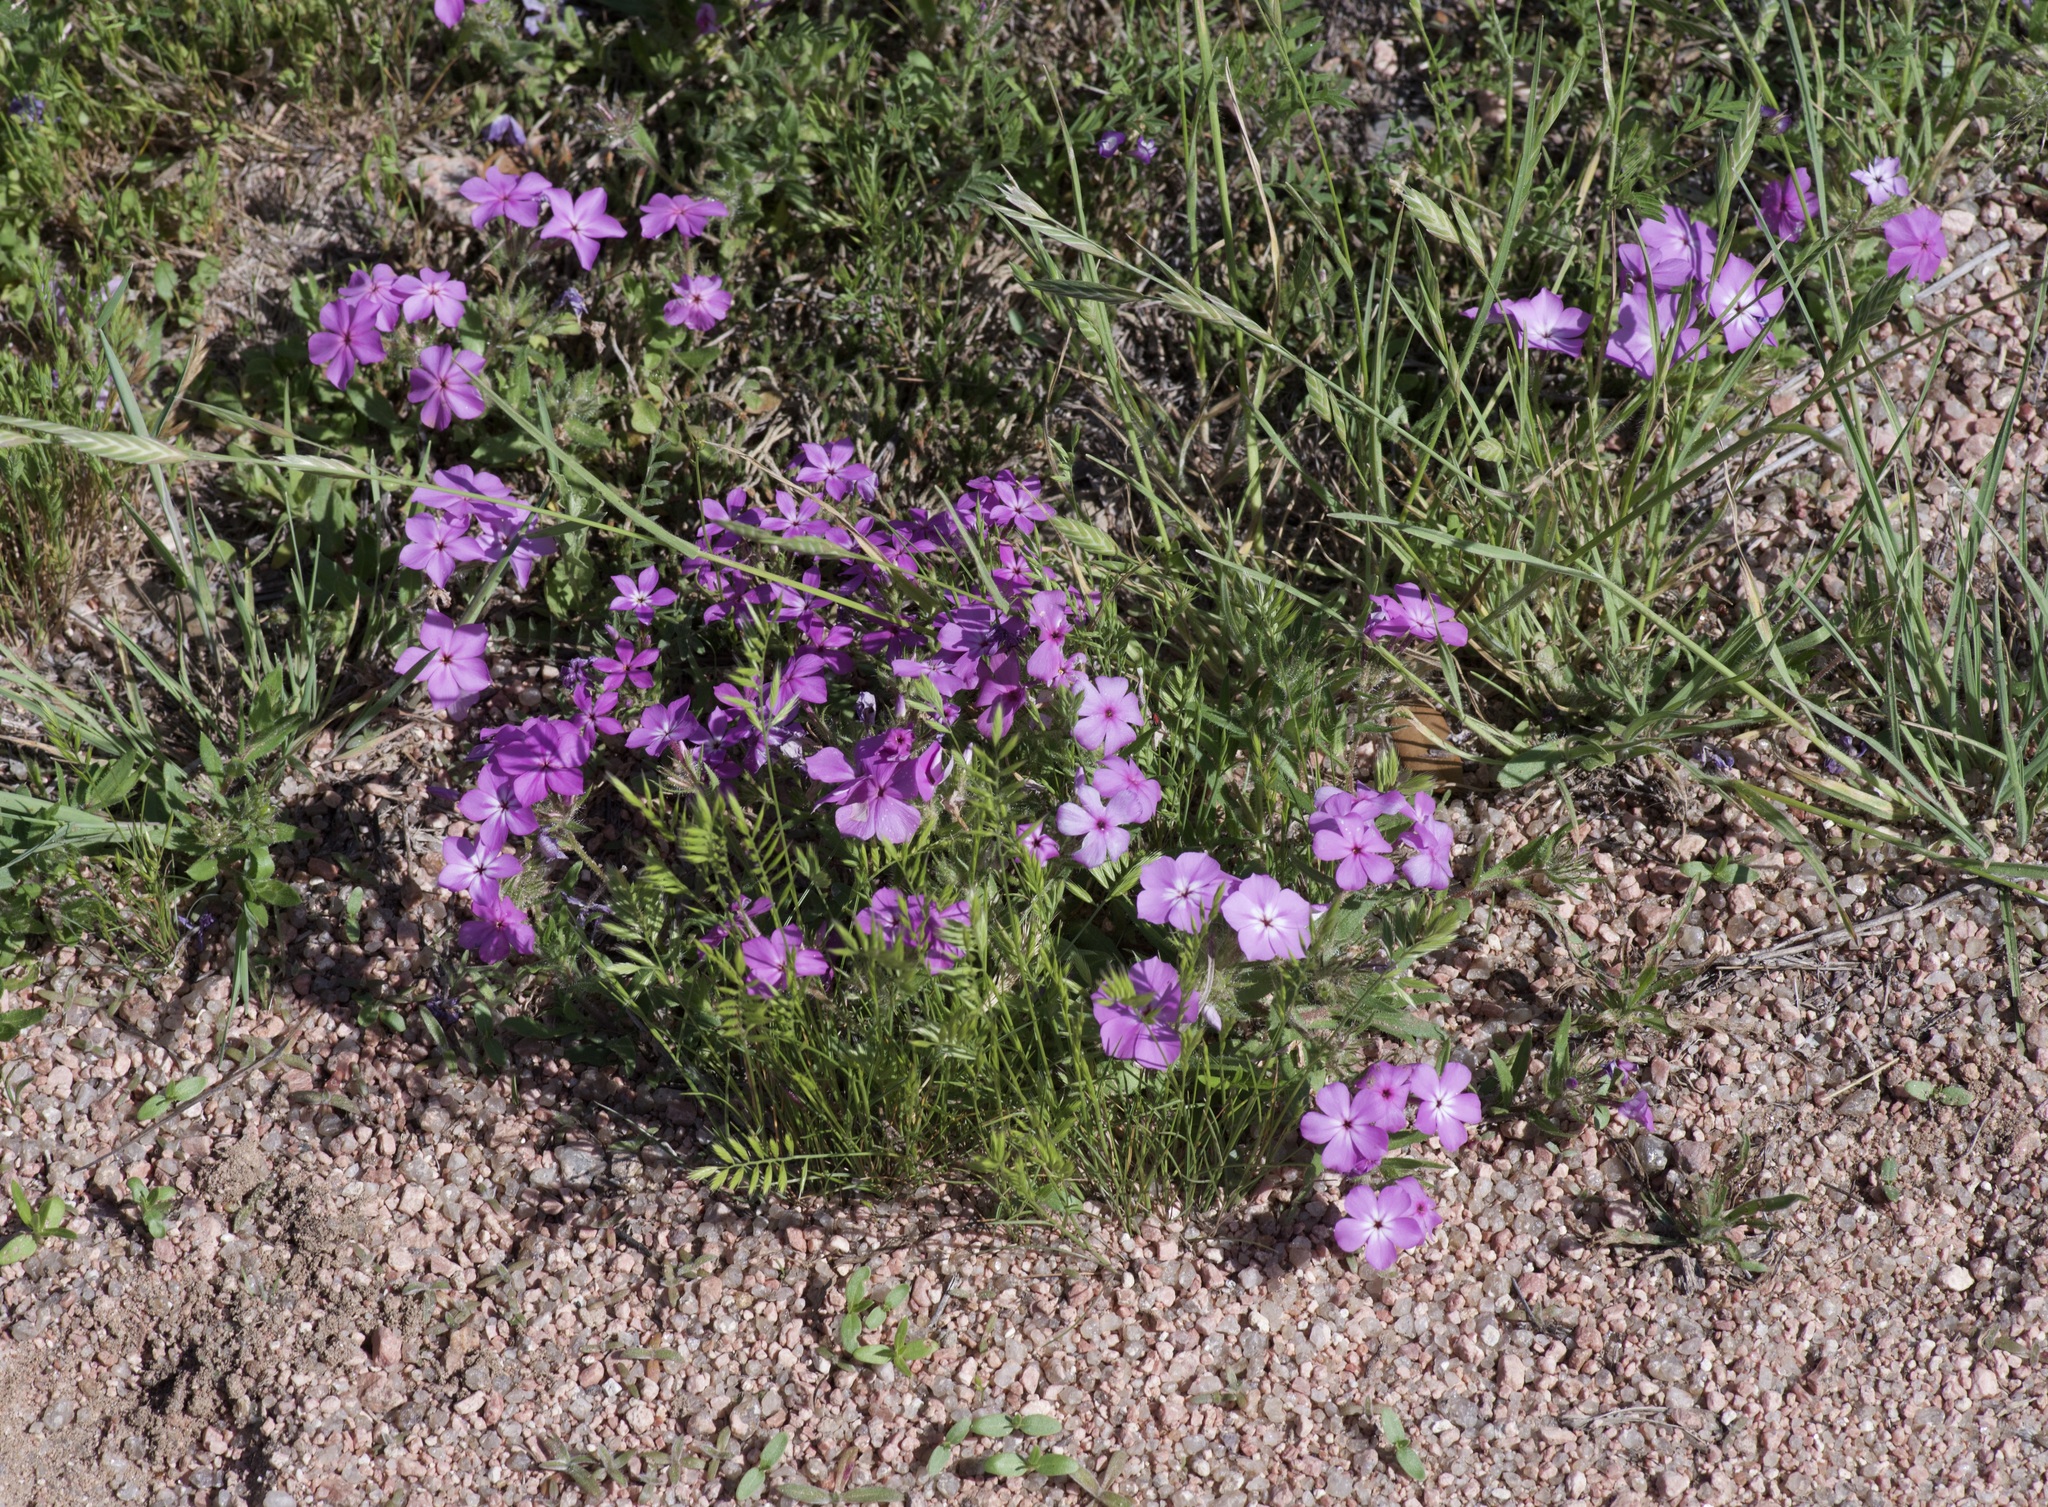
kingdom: Plantae
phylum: Tracheophyta
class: Magnoliopsida
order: Ericales
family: Polemoniaceae
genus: Phlox
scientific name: Phlox drummondii
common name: Drummond's phlox
